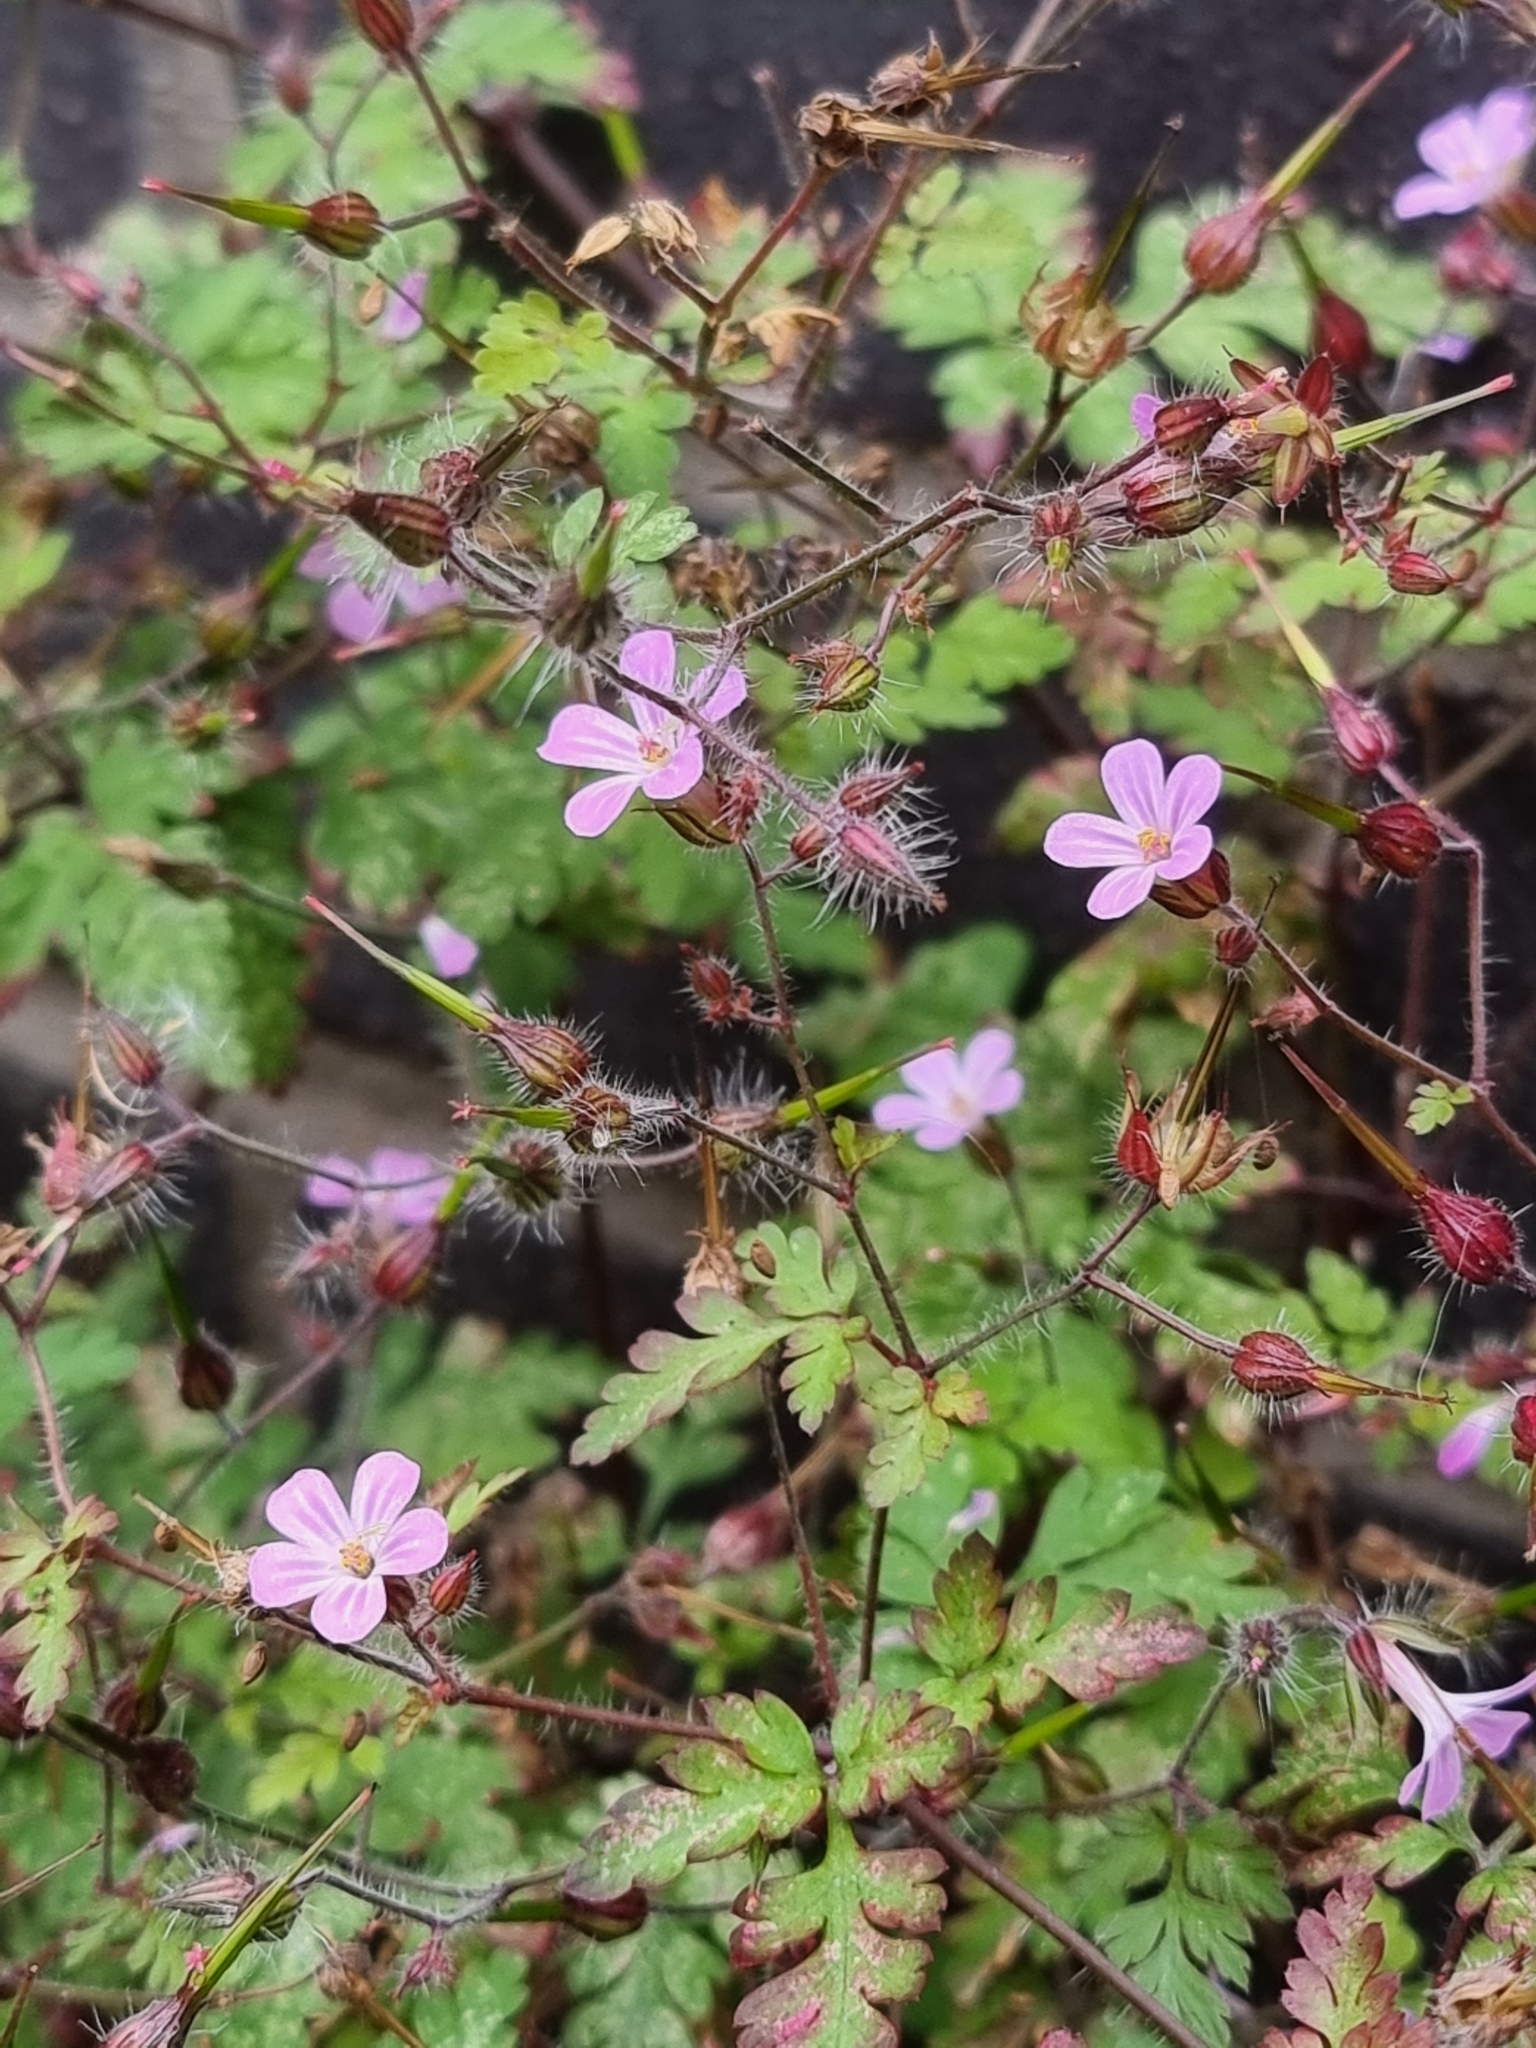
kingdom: Plantae
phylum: Tracheophyta
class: Magnoliopsida
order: Geraniales
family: Geraniaceae
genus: Geranium
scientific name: Geranium robertianum
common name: Herb-robert
